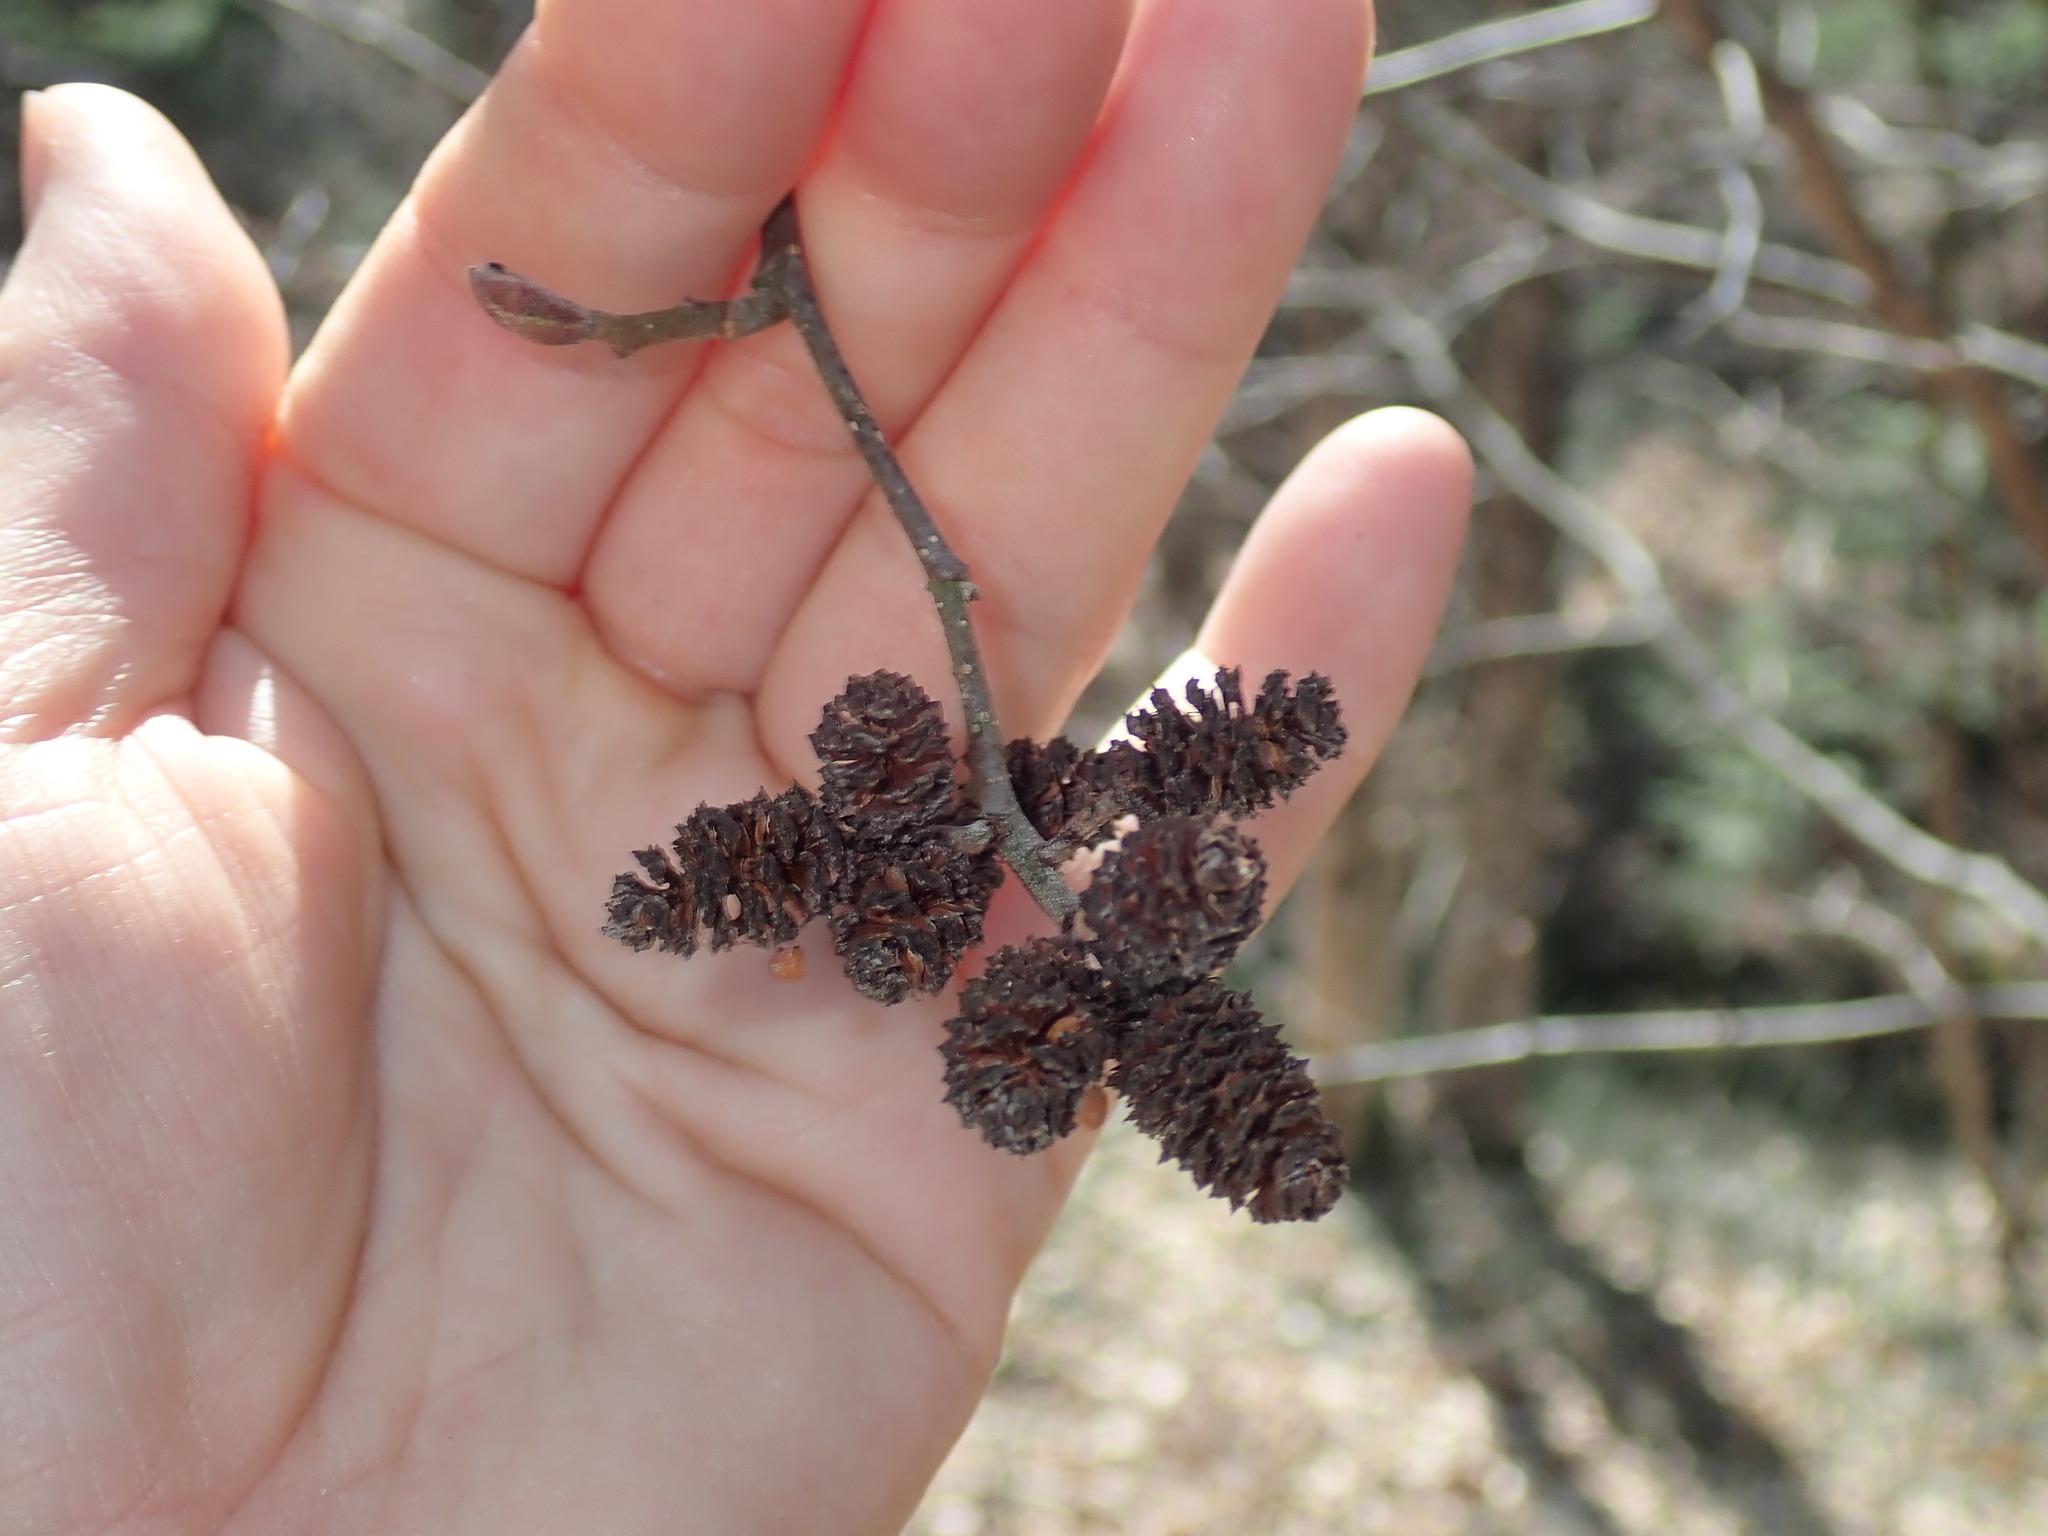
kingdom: Plantae
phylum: Tracheophyta
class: Magnoliopsida
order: Fagales
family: Betulaceae
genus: Alnus
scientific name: Alnus
